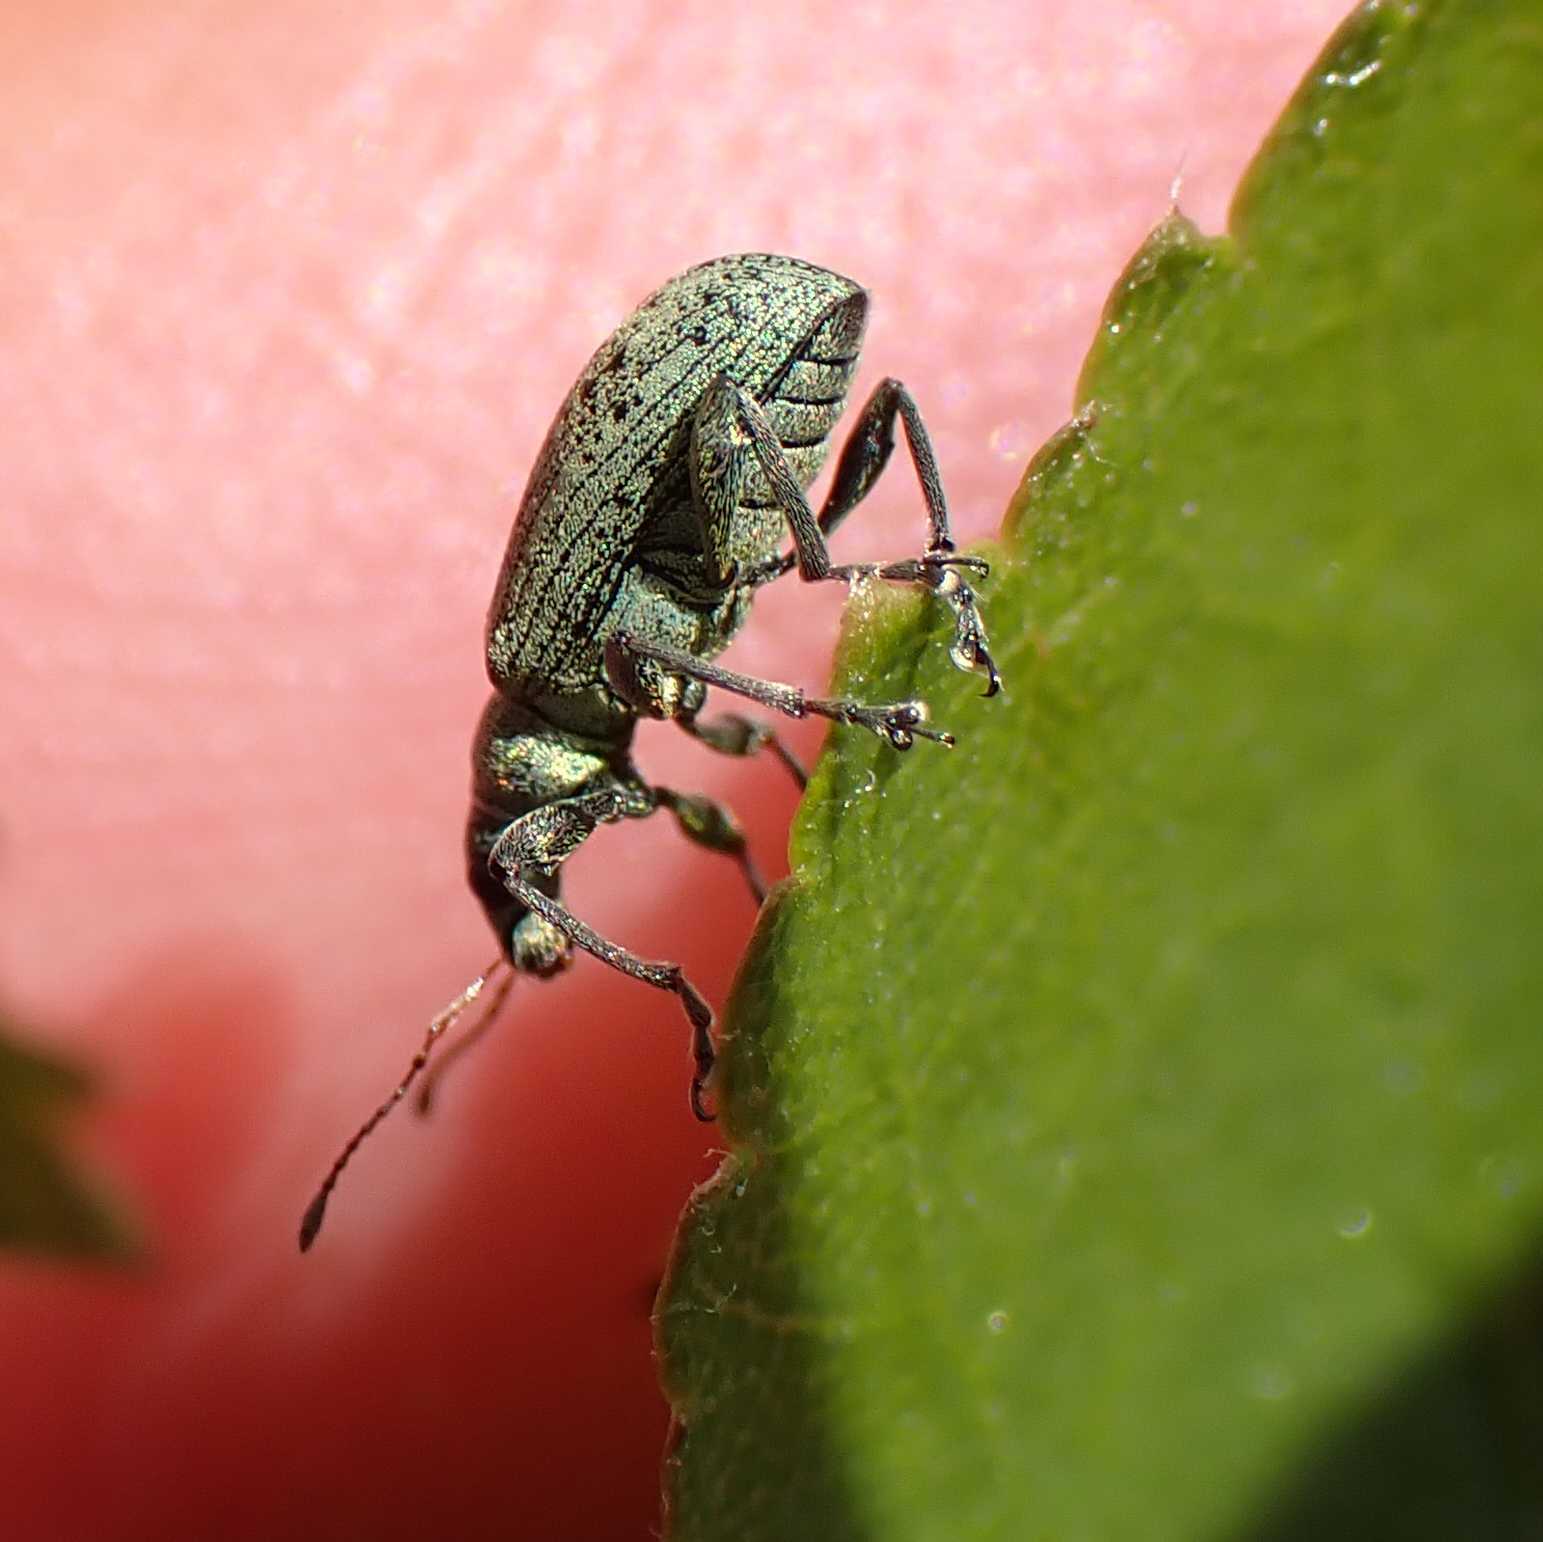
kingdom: Animalia
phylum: Arthropoda
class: Insecta
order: Coleoptera
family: Curculionidae
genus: Polydrusus
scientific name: Polydrusus cervinus
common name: Weevil
